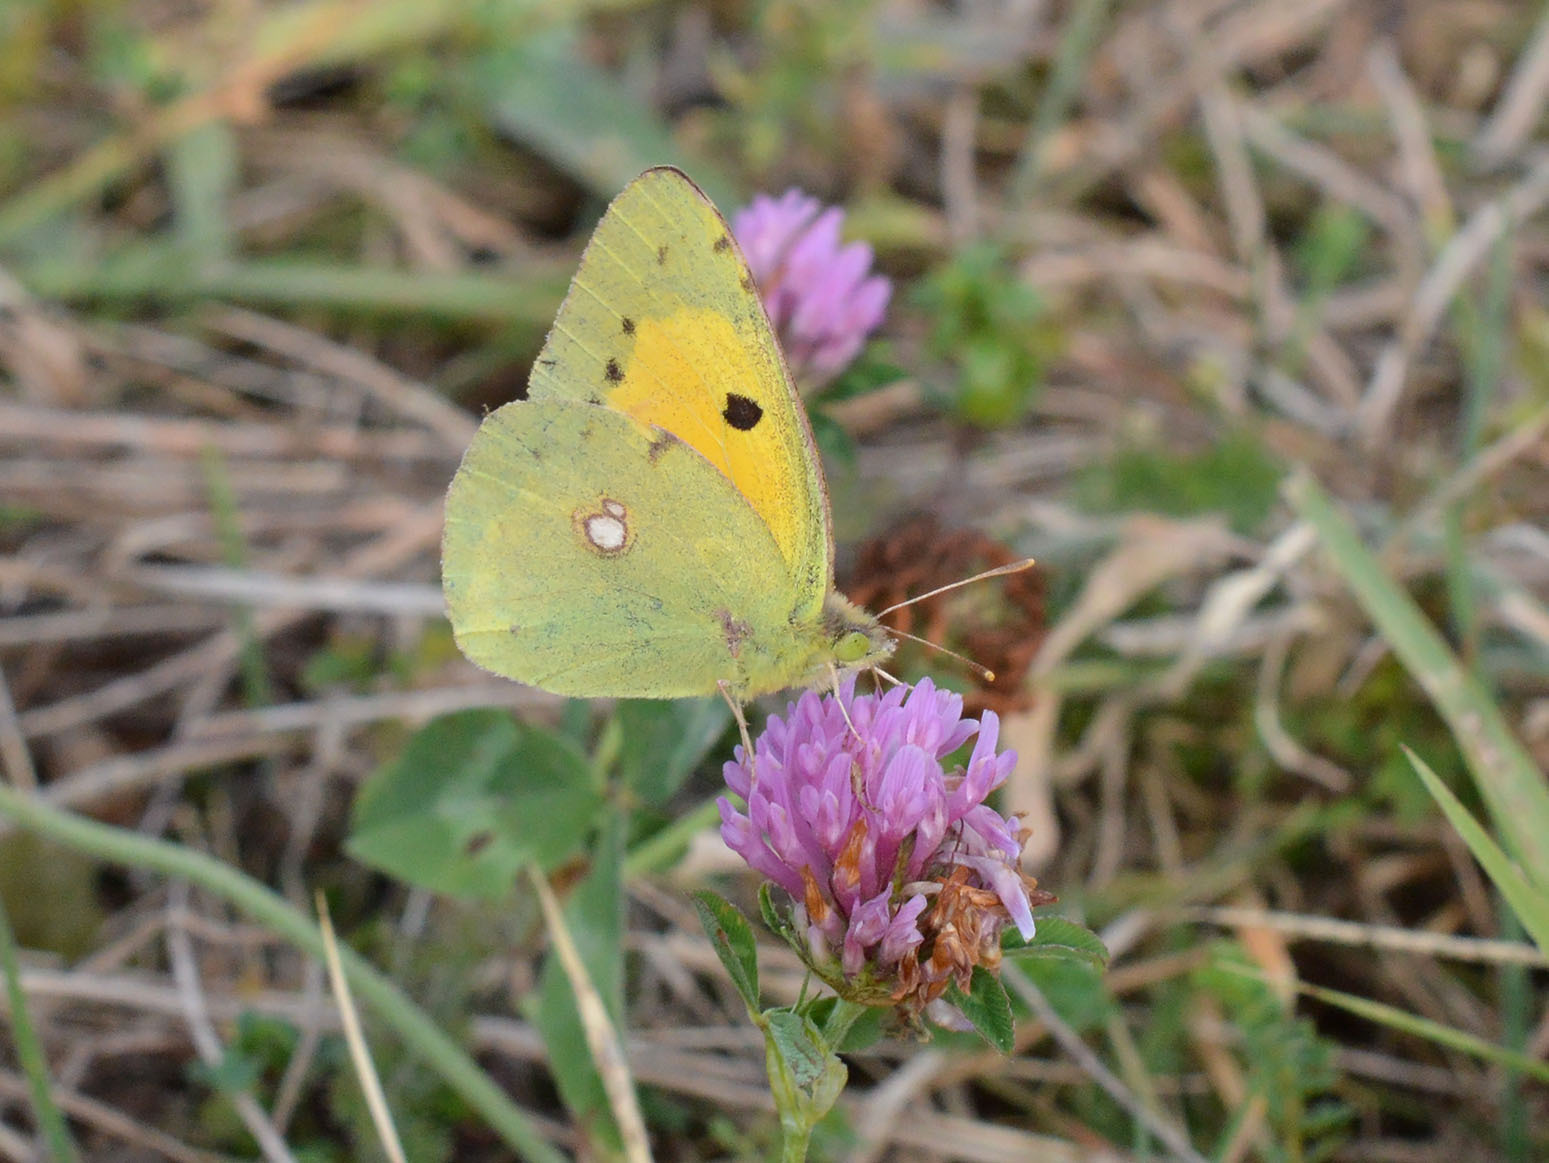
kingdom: Animalia
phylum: Arthropoda
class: Insecta
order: Lepidoptera
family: Pieridae
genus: Colias
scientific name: Colias croceus
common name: Clouded yellow
